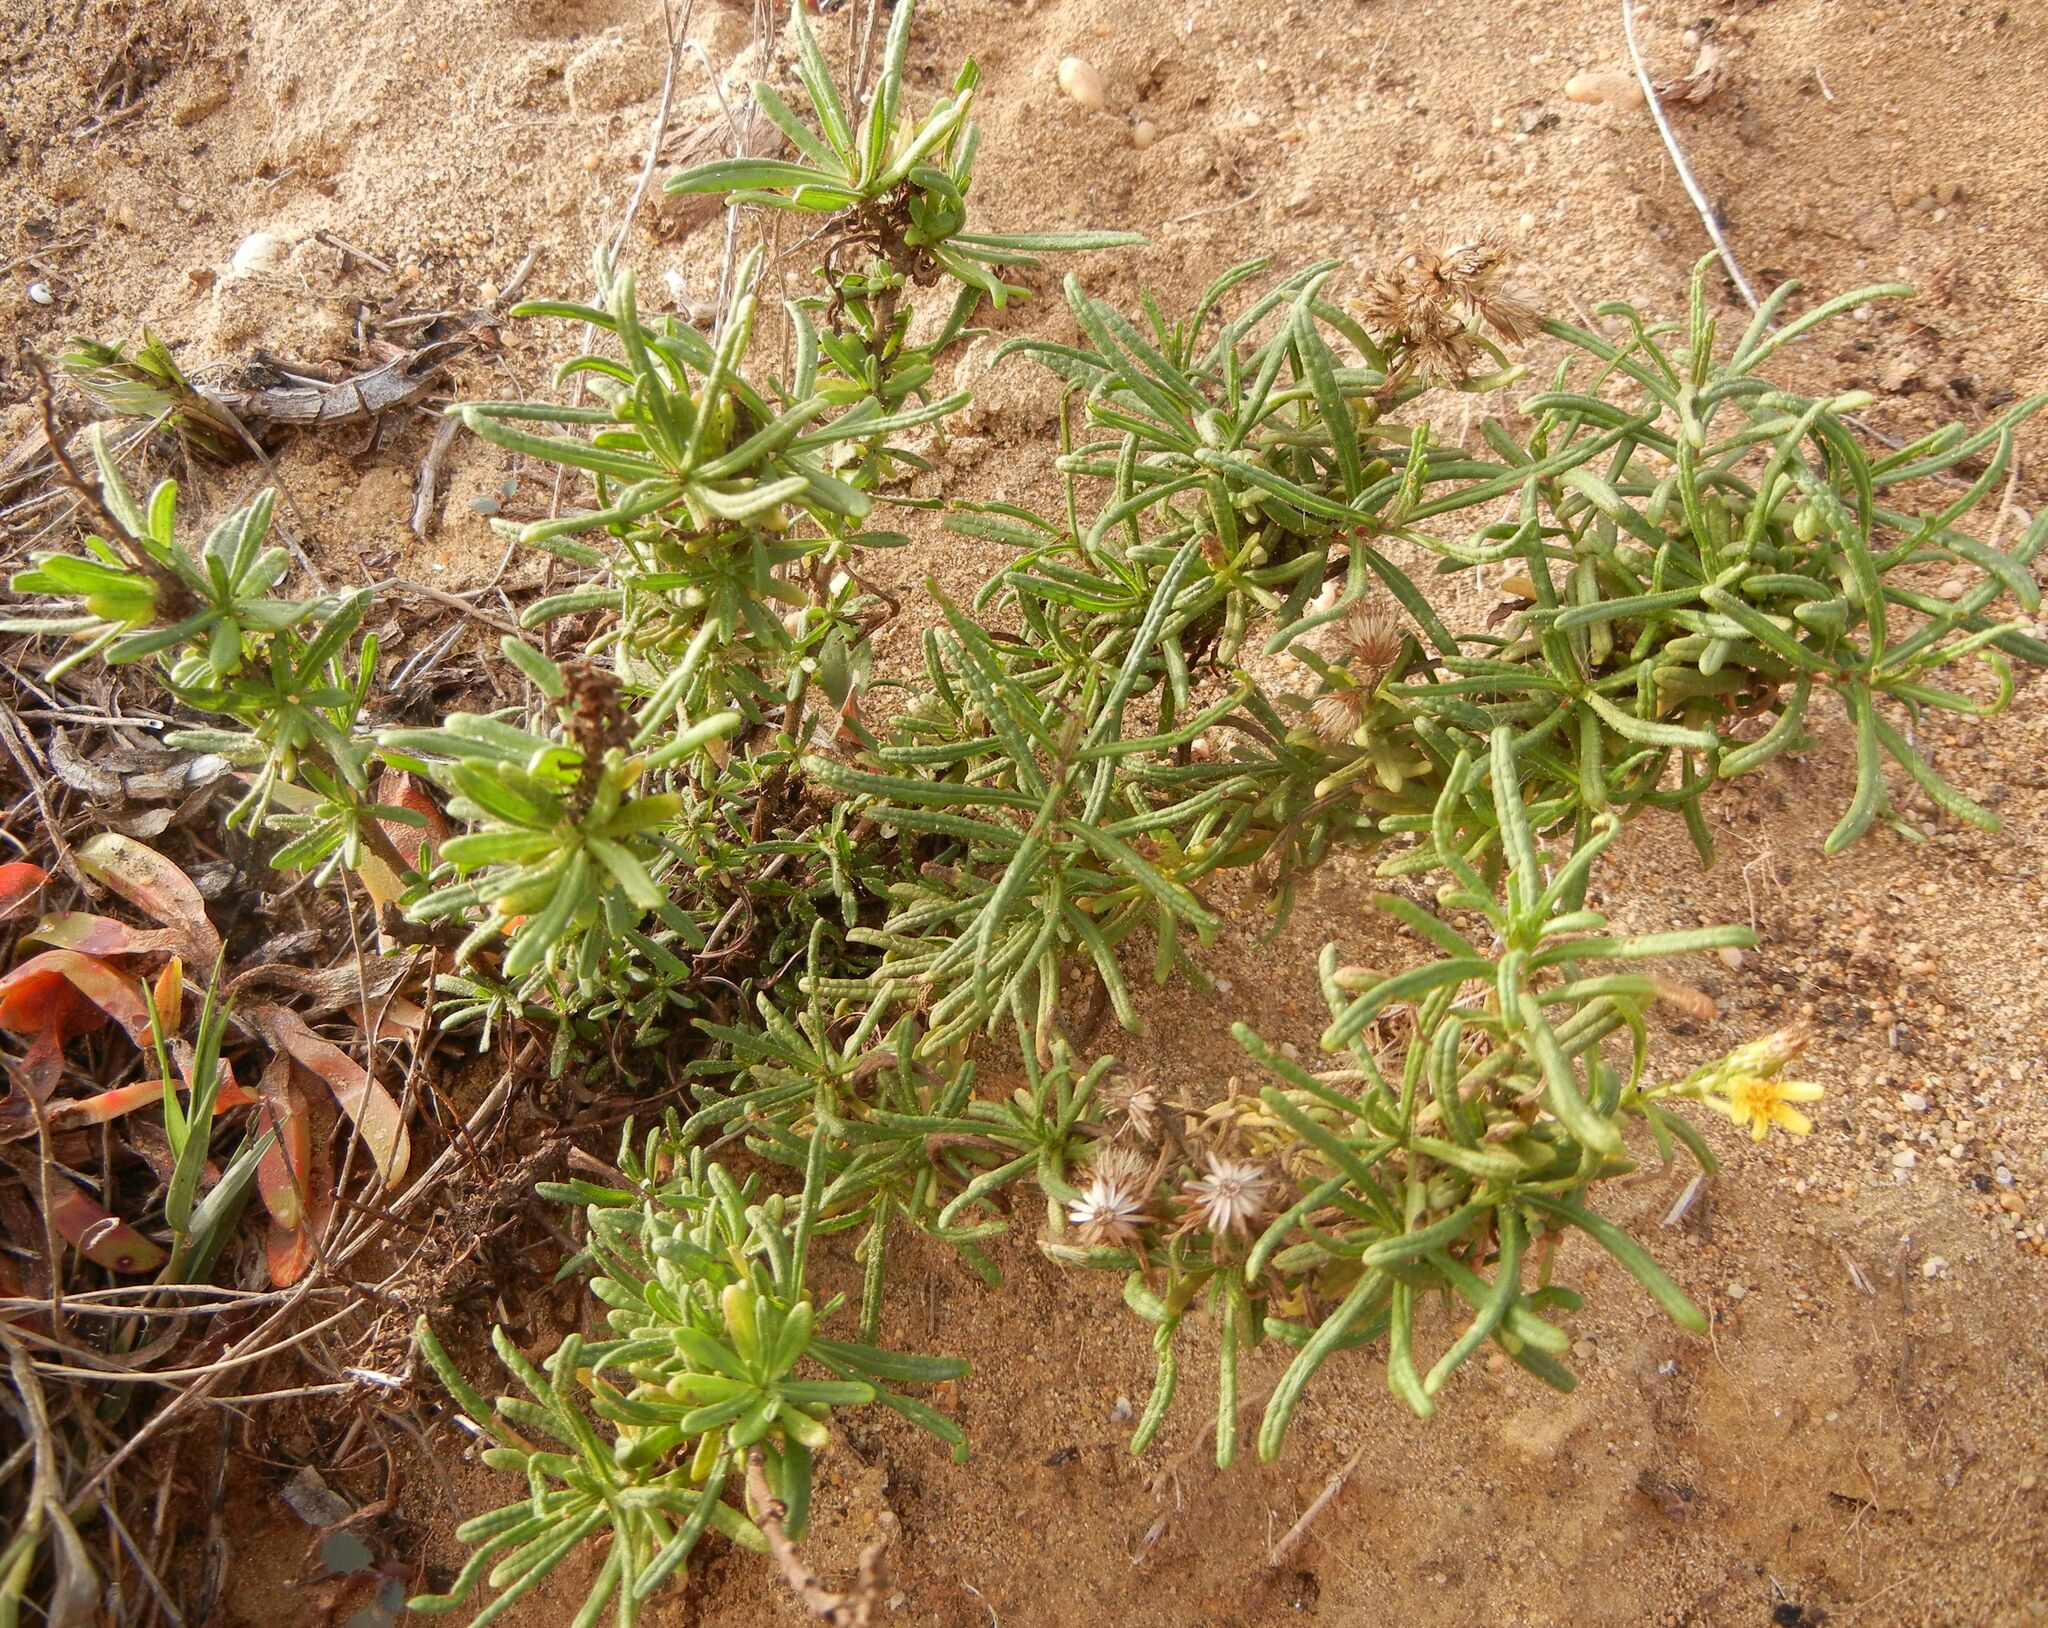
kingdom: Plantae
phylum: Tracheophyta
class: Magnoliopsida
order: Asterales
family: Asteraceae
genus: Dittrichia
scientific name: Dittrichia viscosa
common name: Woody fleabane
